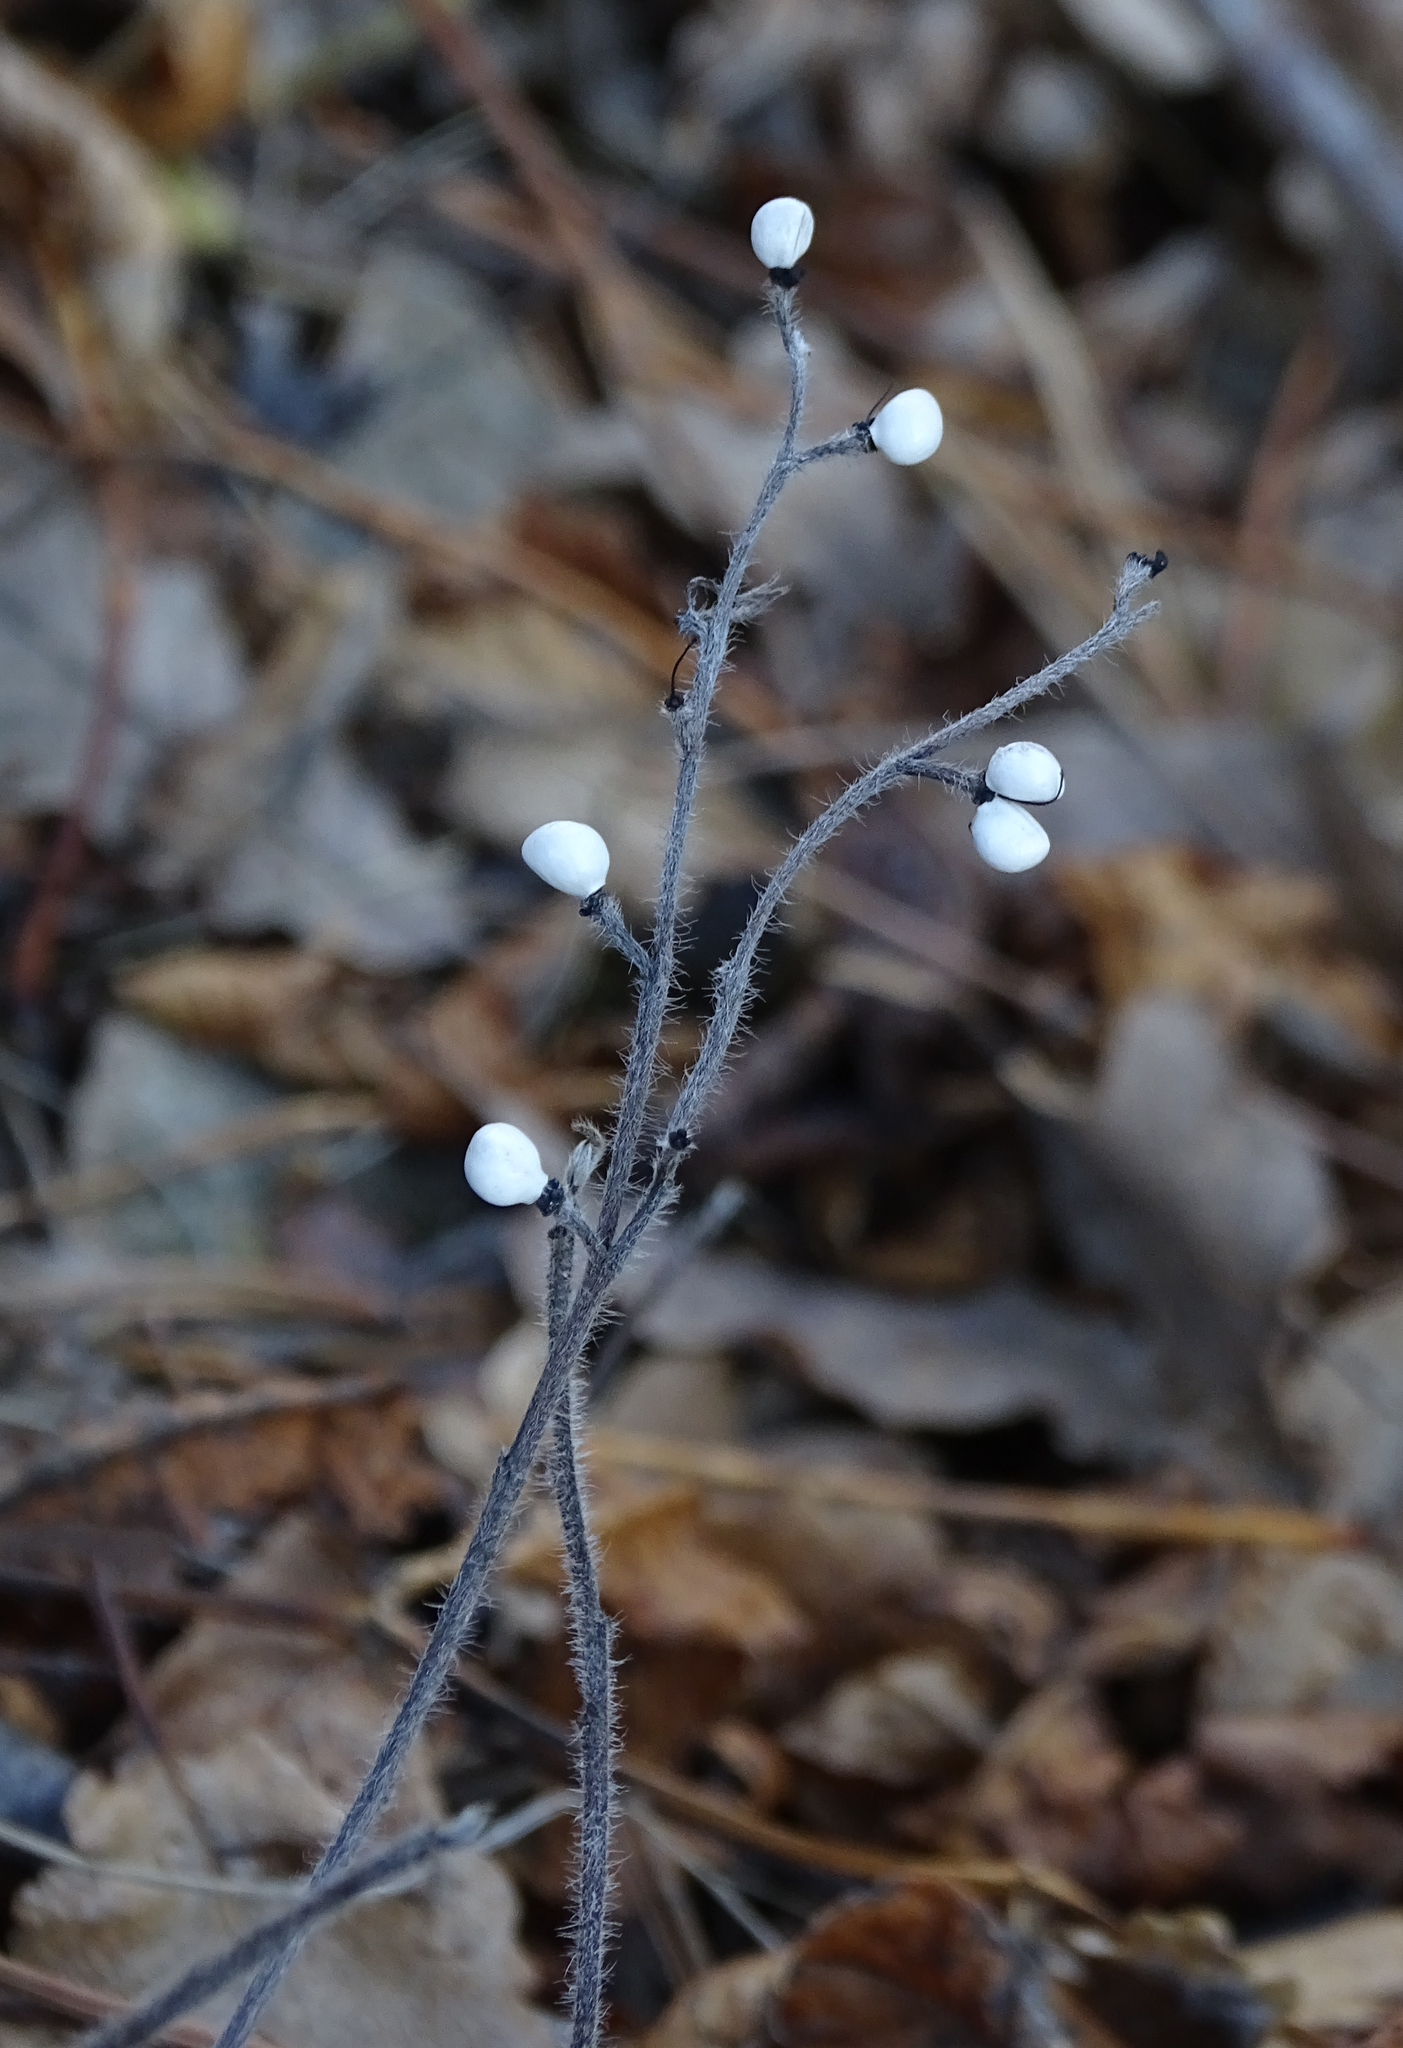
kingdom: Plantae
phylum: Tracheophyta
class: Magnoliopsida
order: Boraginales
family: Boraginaceae
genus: Aegonychon
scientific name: Aegonychon purpurocaeruleum
